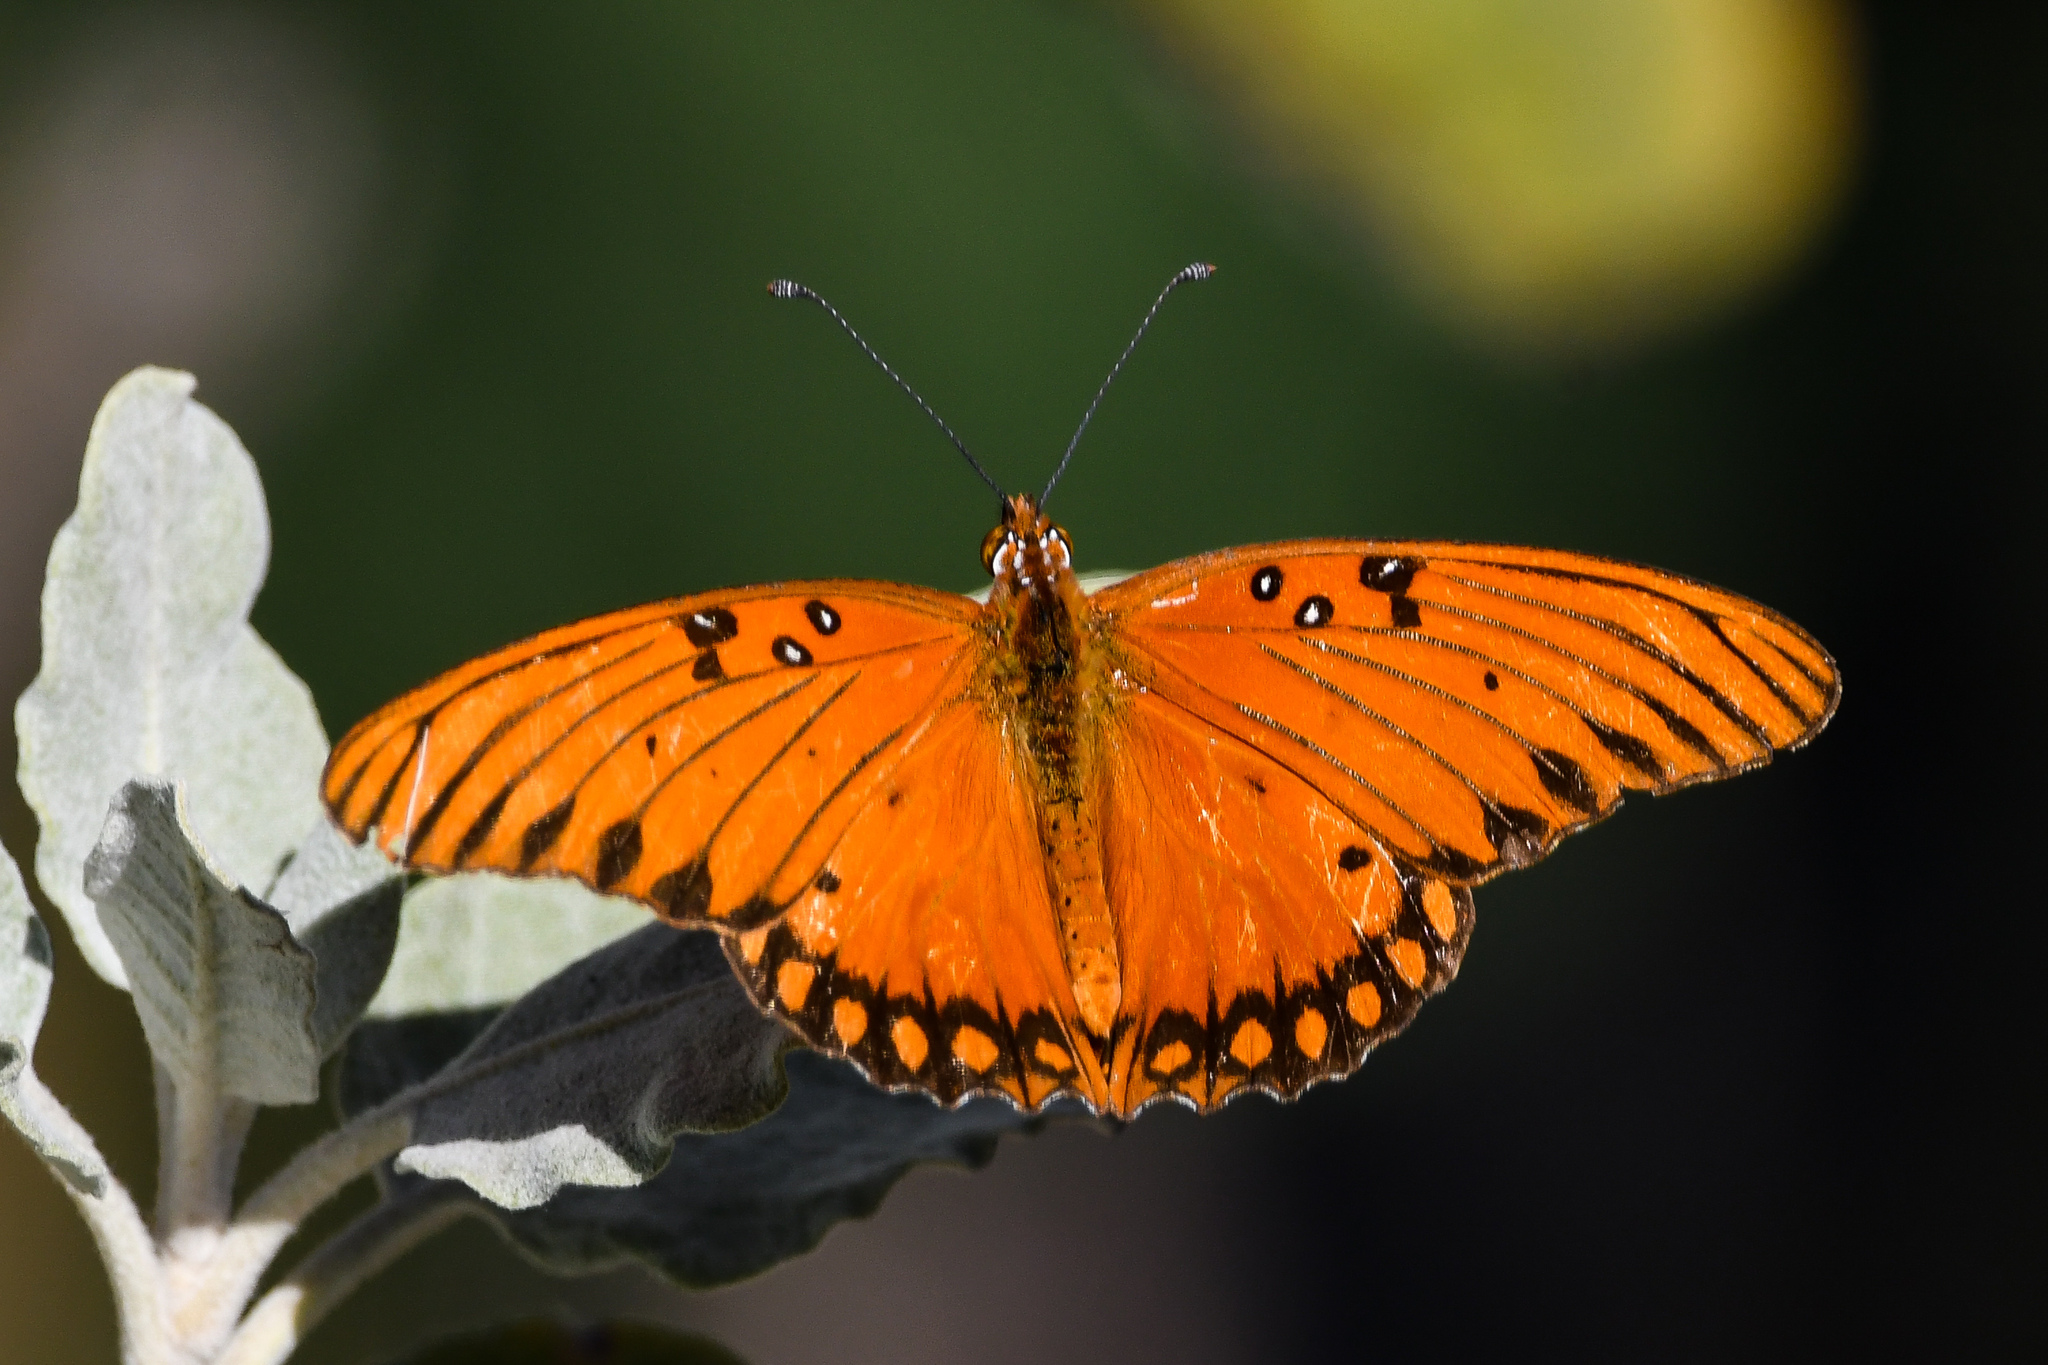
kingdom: Animalia
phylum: Arthropoda
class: Insecta
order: Lepidoptera
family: Nymphalidae
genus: Dione
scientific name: Dione vanillae
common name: Gulf fritillary
